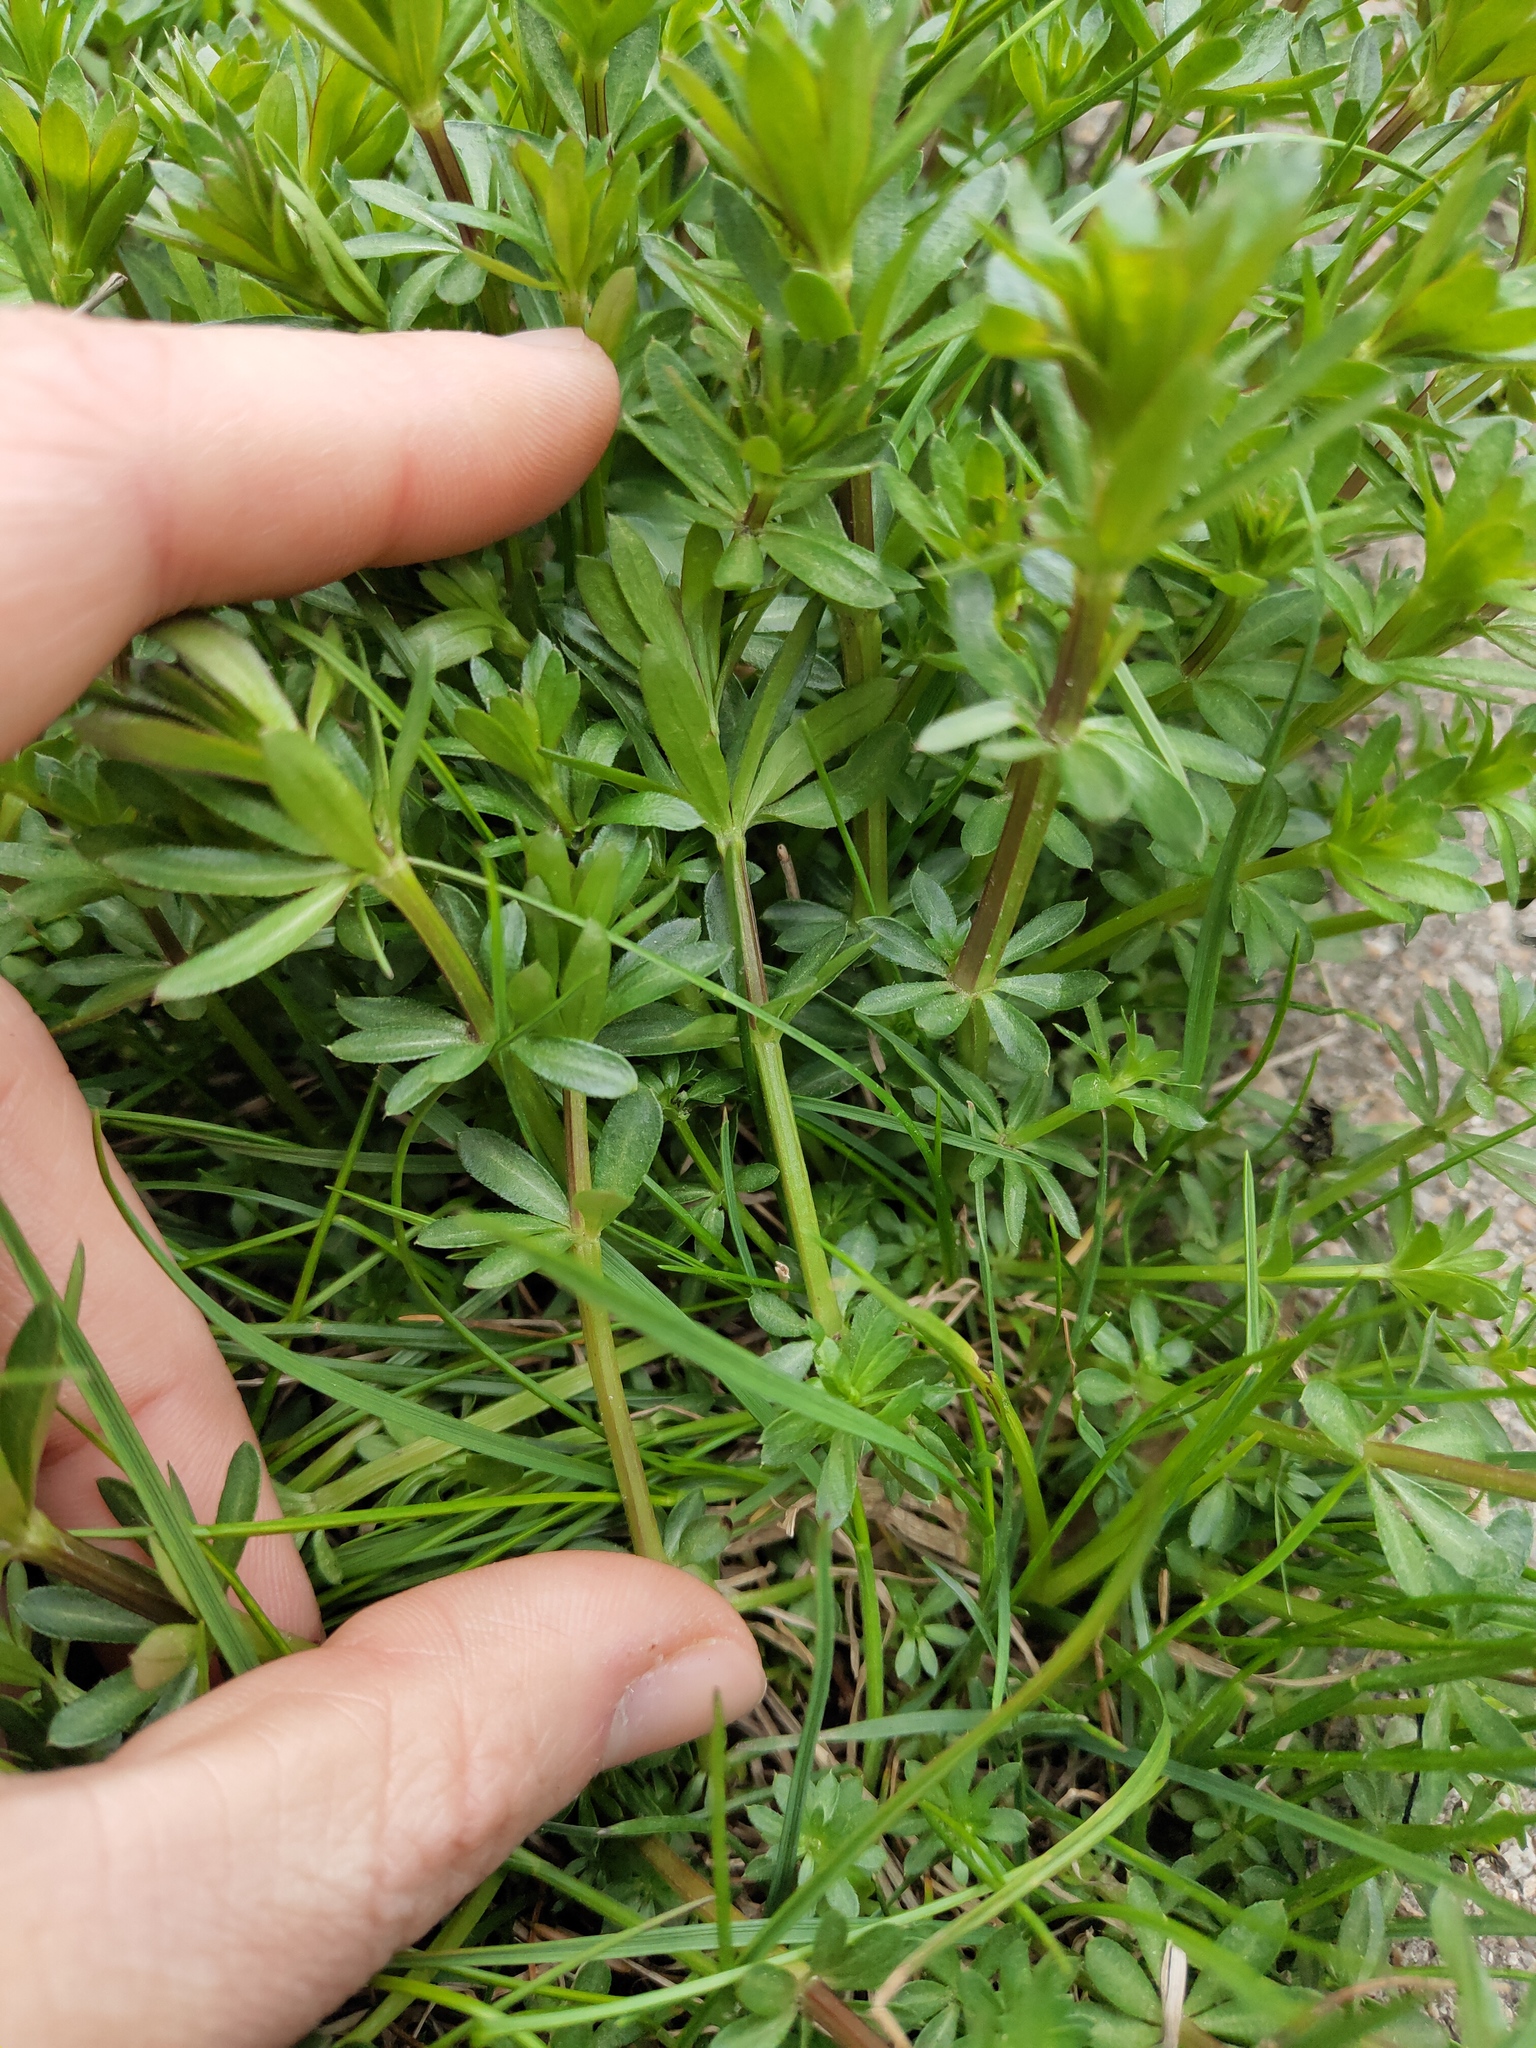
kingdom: Plantae
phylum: Tracheophyta
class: Magnoliopsida
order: Gentianales
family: Rubiaceae
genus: Galium
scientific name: Galium mollugo
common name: Hedge bedstraw
